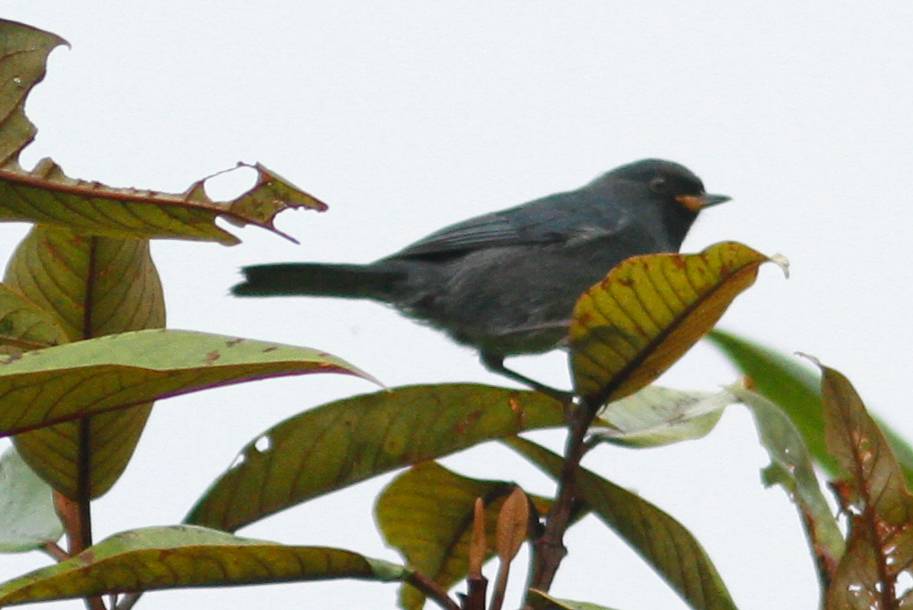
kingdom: Animalia
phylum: Chordata
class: Aves
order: Passeriformes
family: Thraupidae
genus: Diglossa
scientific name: Diglossa caerulescens
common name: Bluish flowerpiercer
